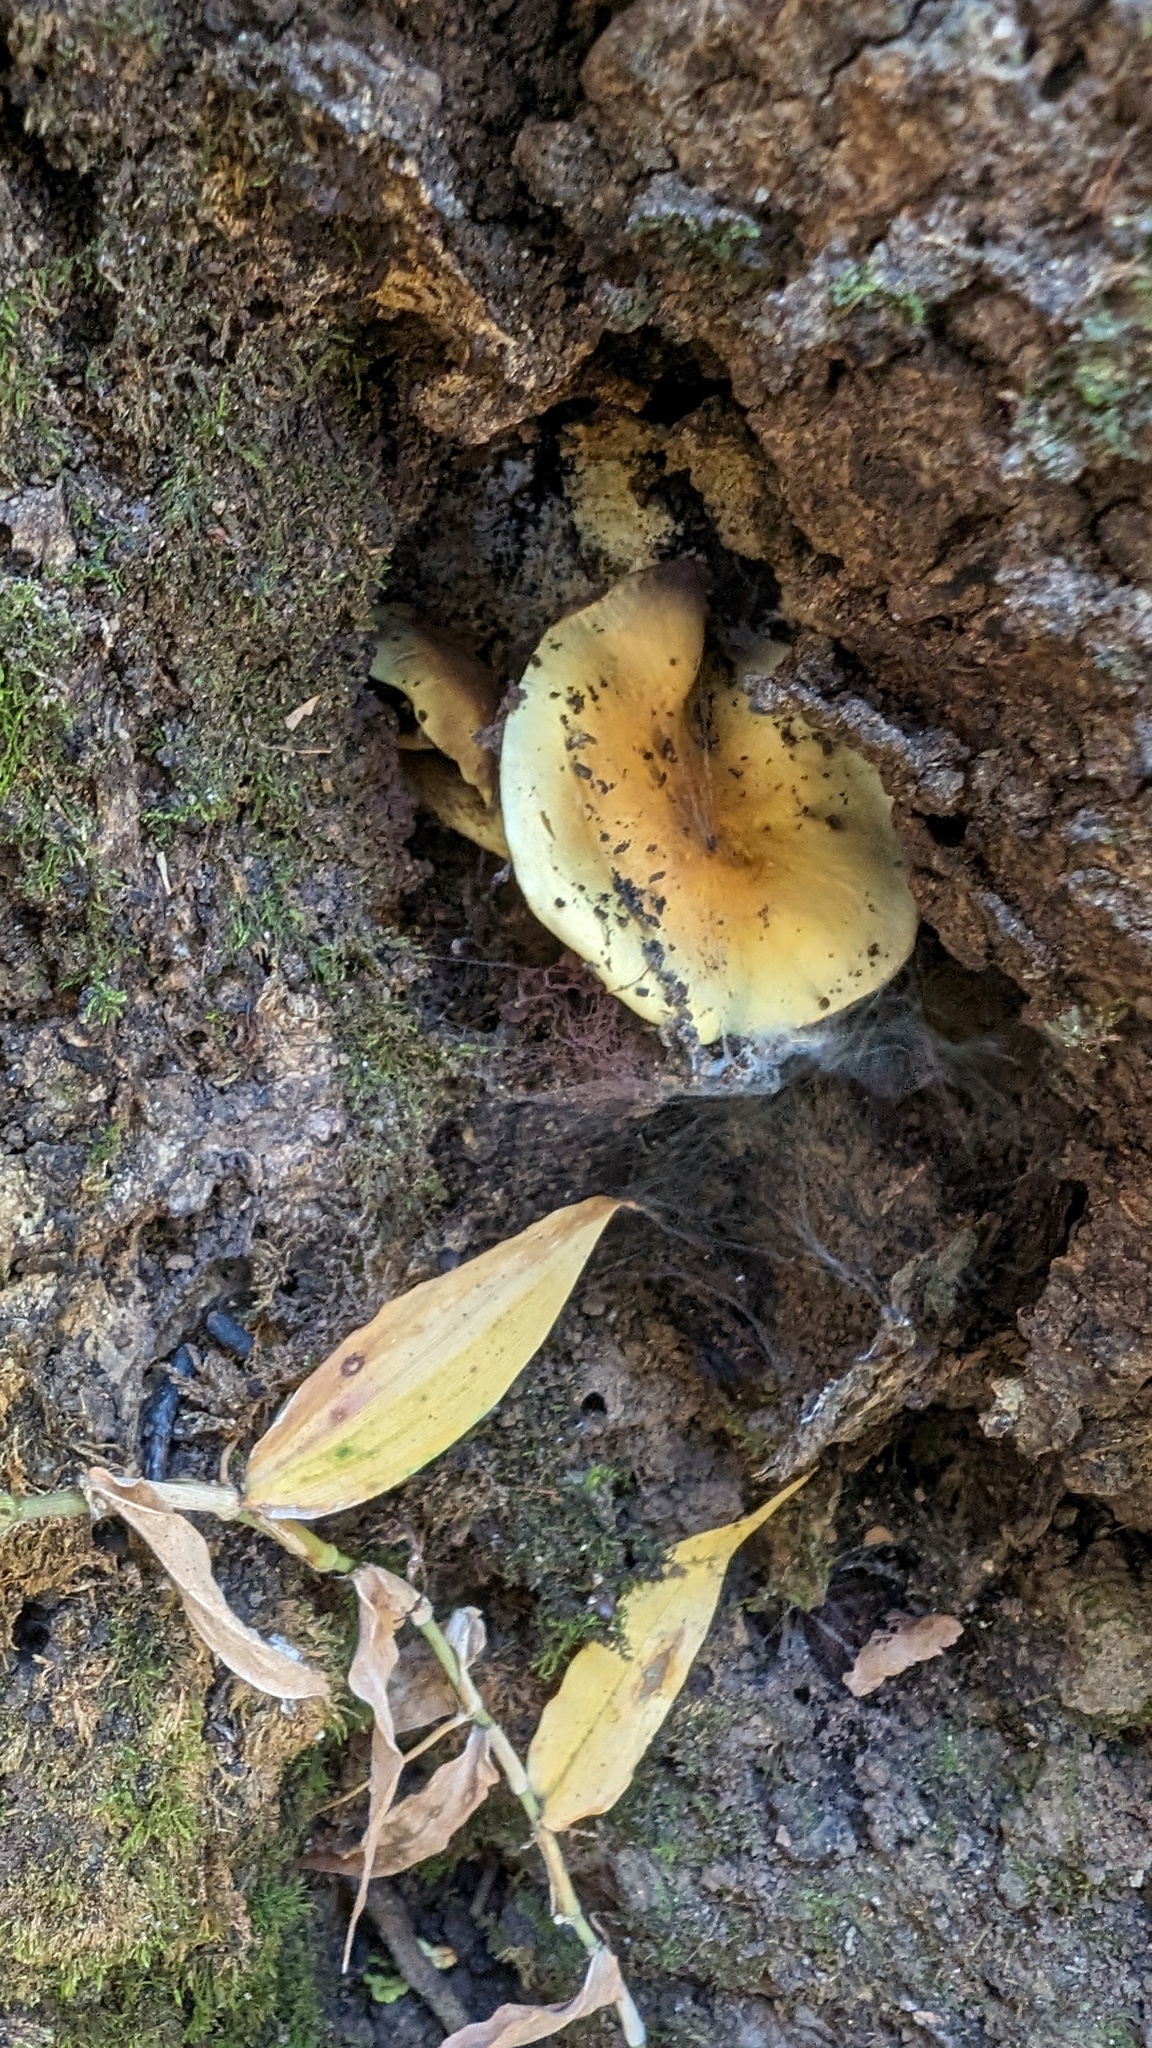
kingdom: Fungi
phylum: Basidiomycota
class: Agaricomycetes
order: Agaricales
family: Strophariaceae
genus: Hypholoma
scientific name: Hypholoma fasciculare
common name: Sulphur tuft
